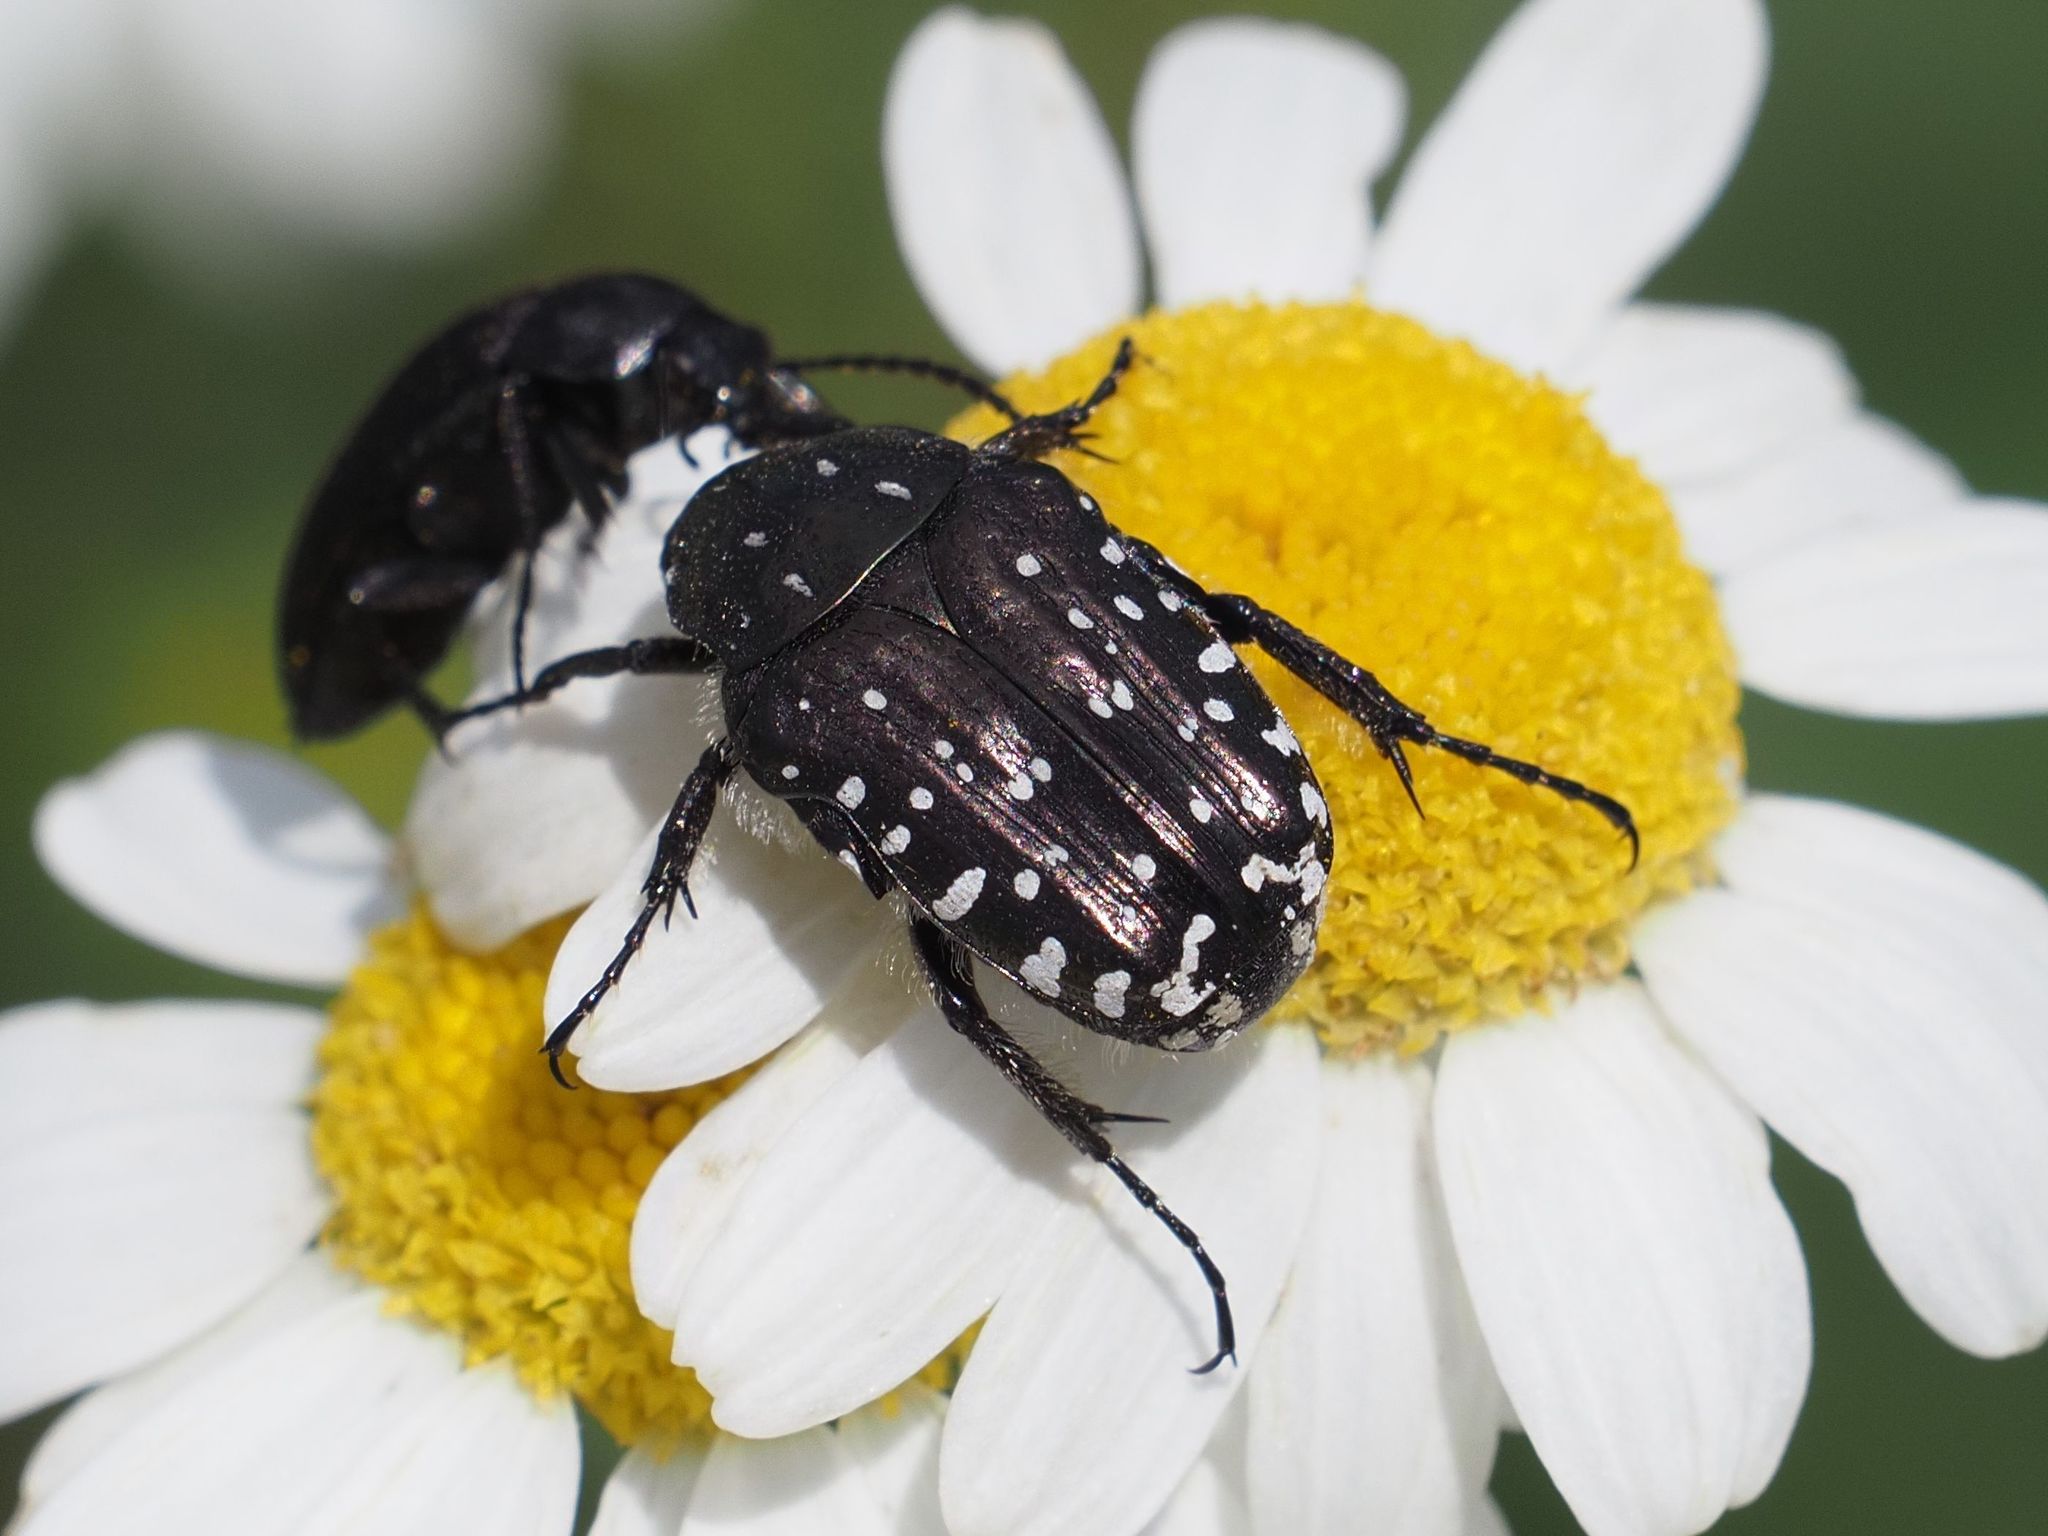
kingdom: Animalia
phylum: Arthropoda
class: Insecta
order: Coleoptera
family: Scarabaeidae
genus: Oxythyrea
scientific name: Oxythyrea funesta
